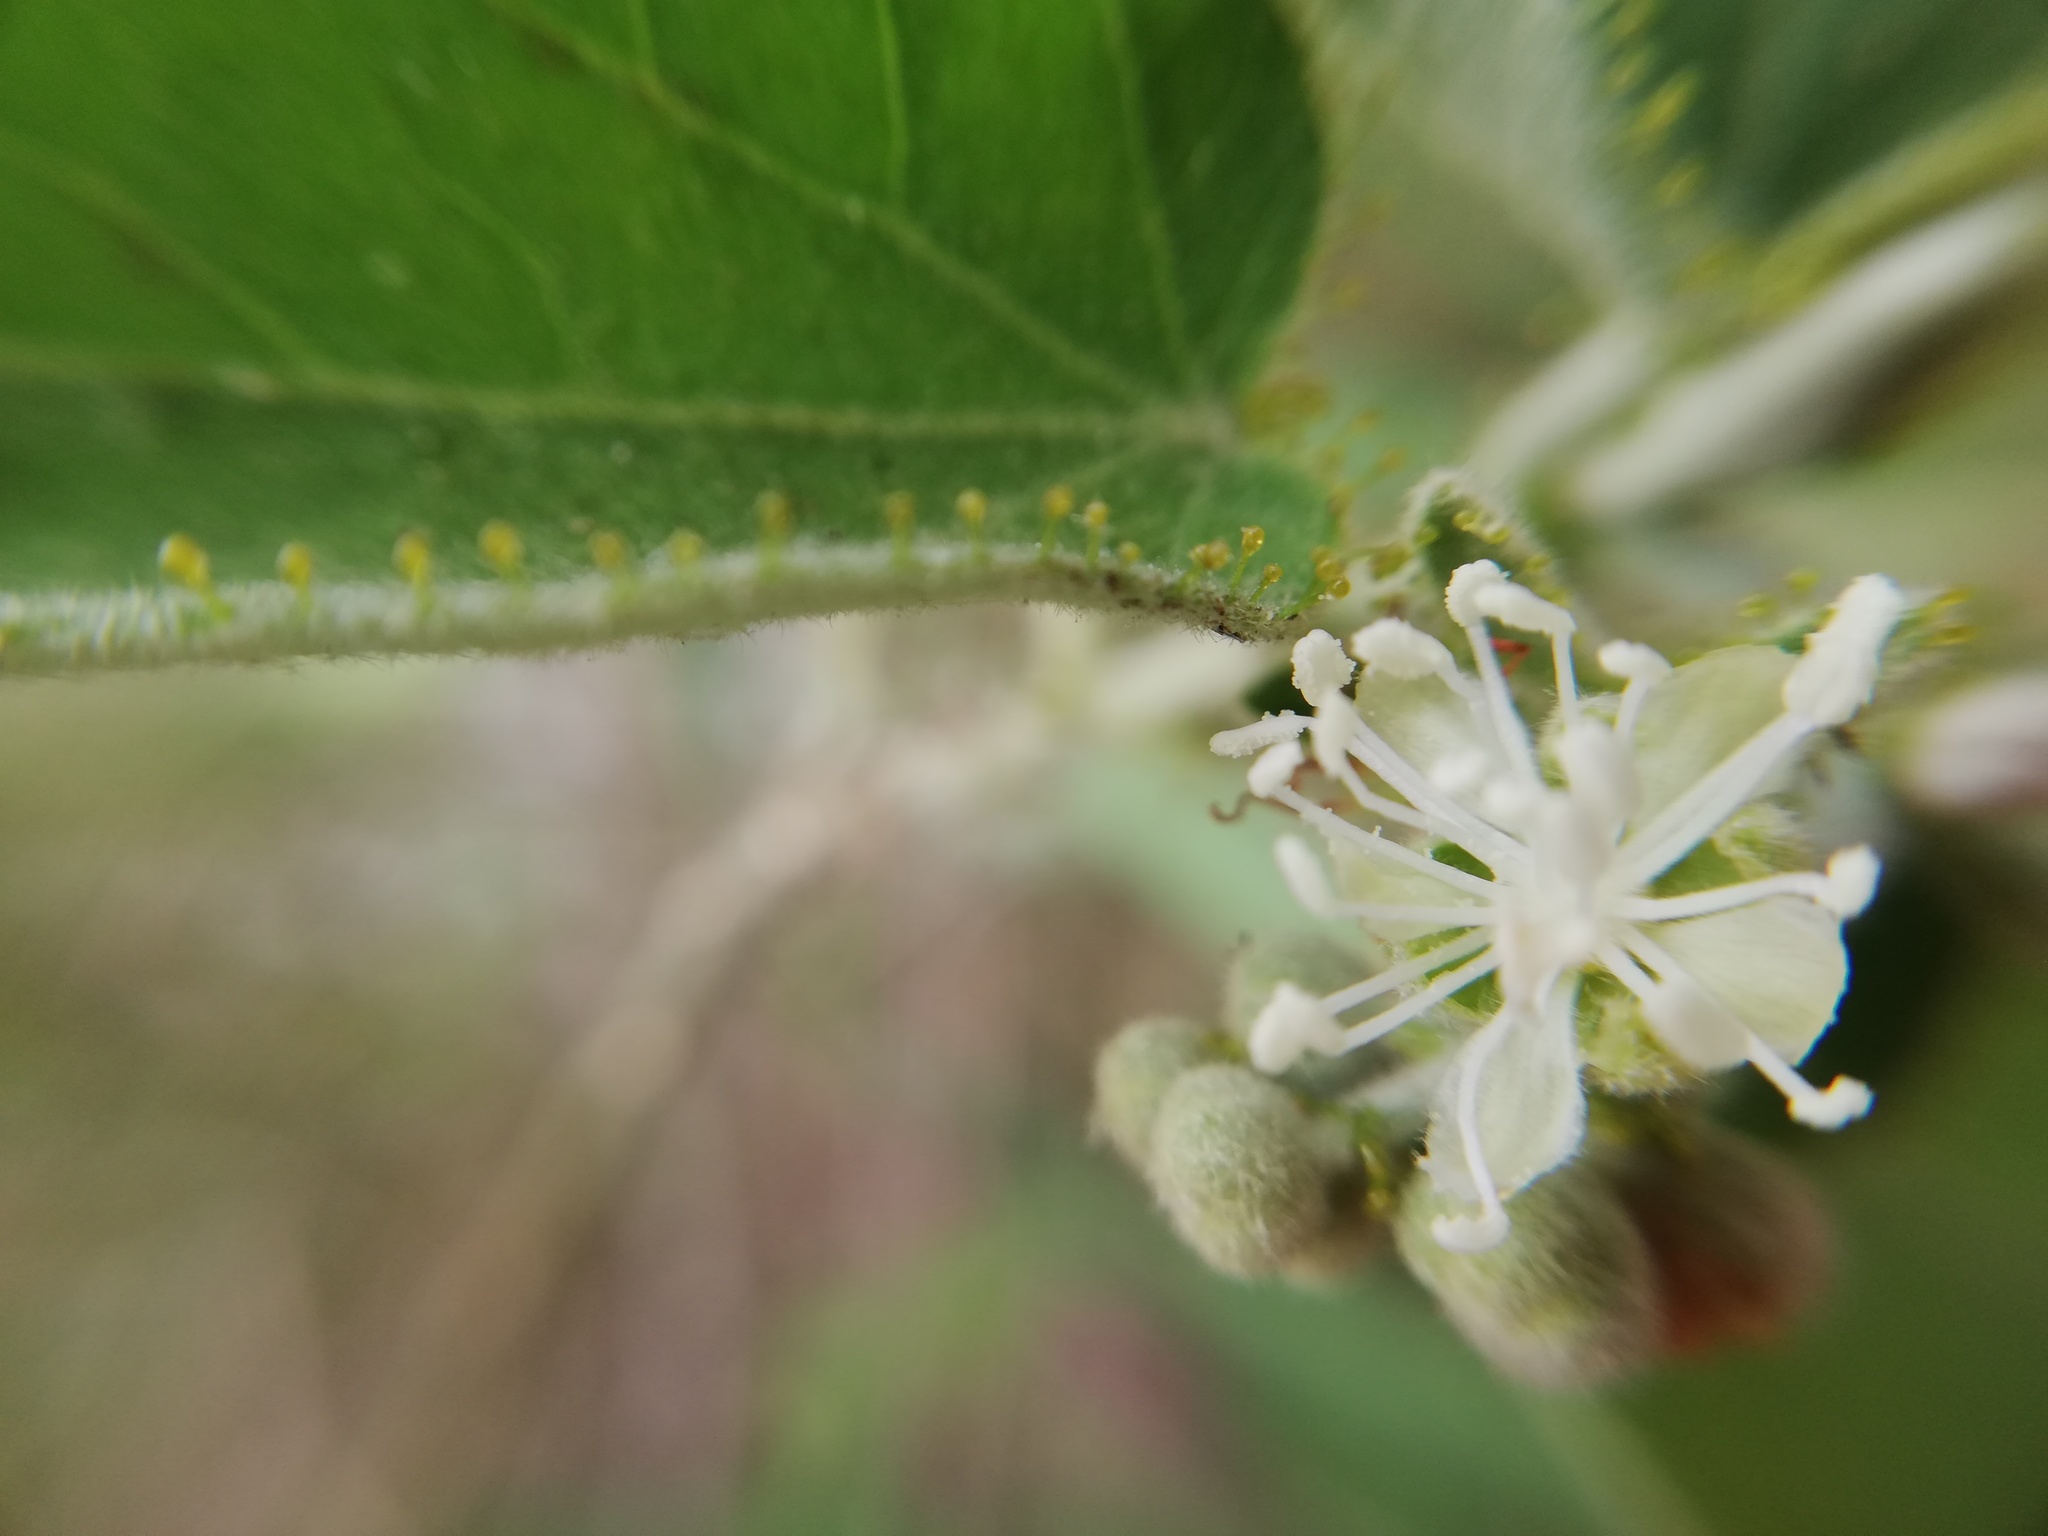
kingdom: Plantae
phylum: Tracheophyta
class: Magnoliopsida
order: Malpighiales
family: Euphorbiaceae
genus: Croton
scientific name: Croton ciliatoglandulifer
